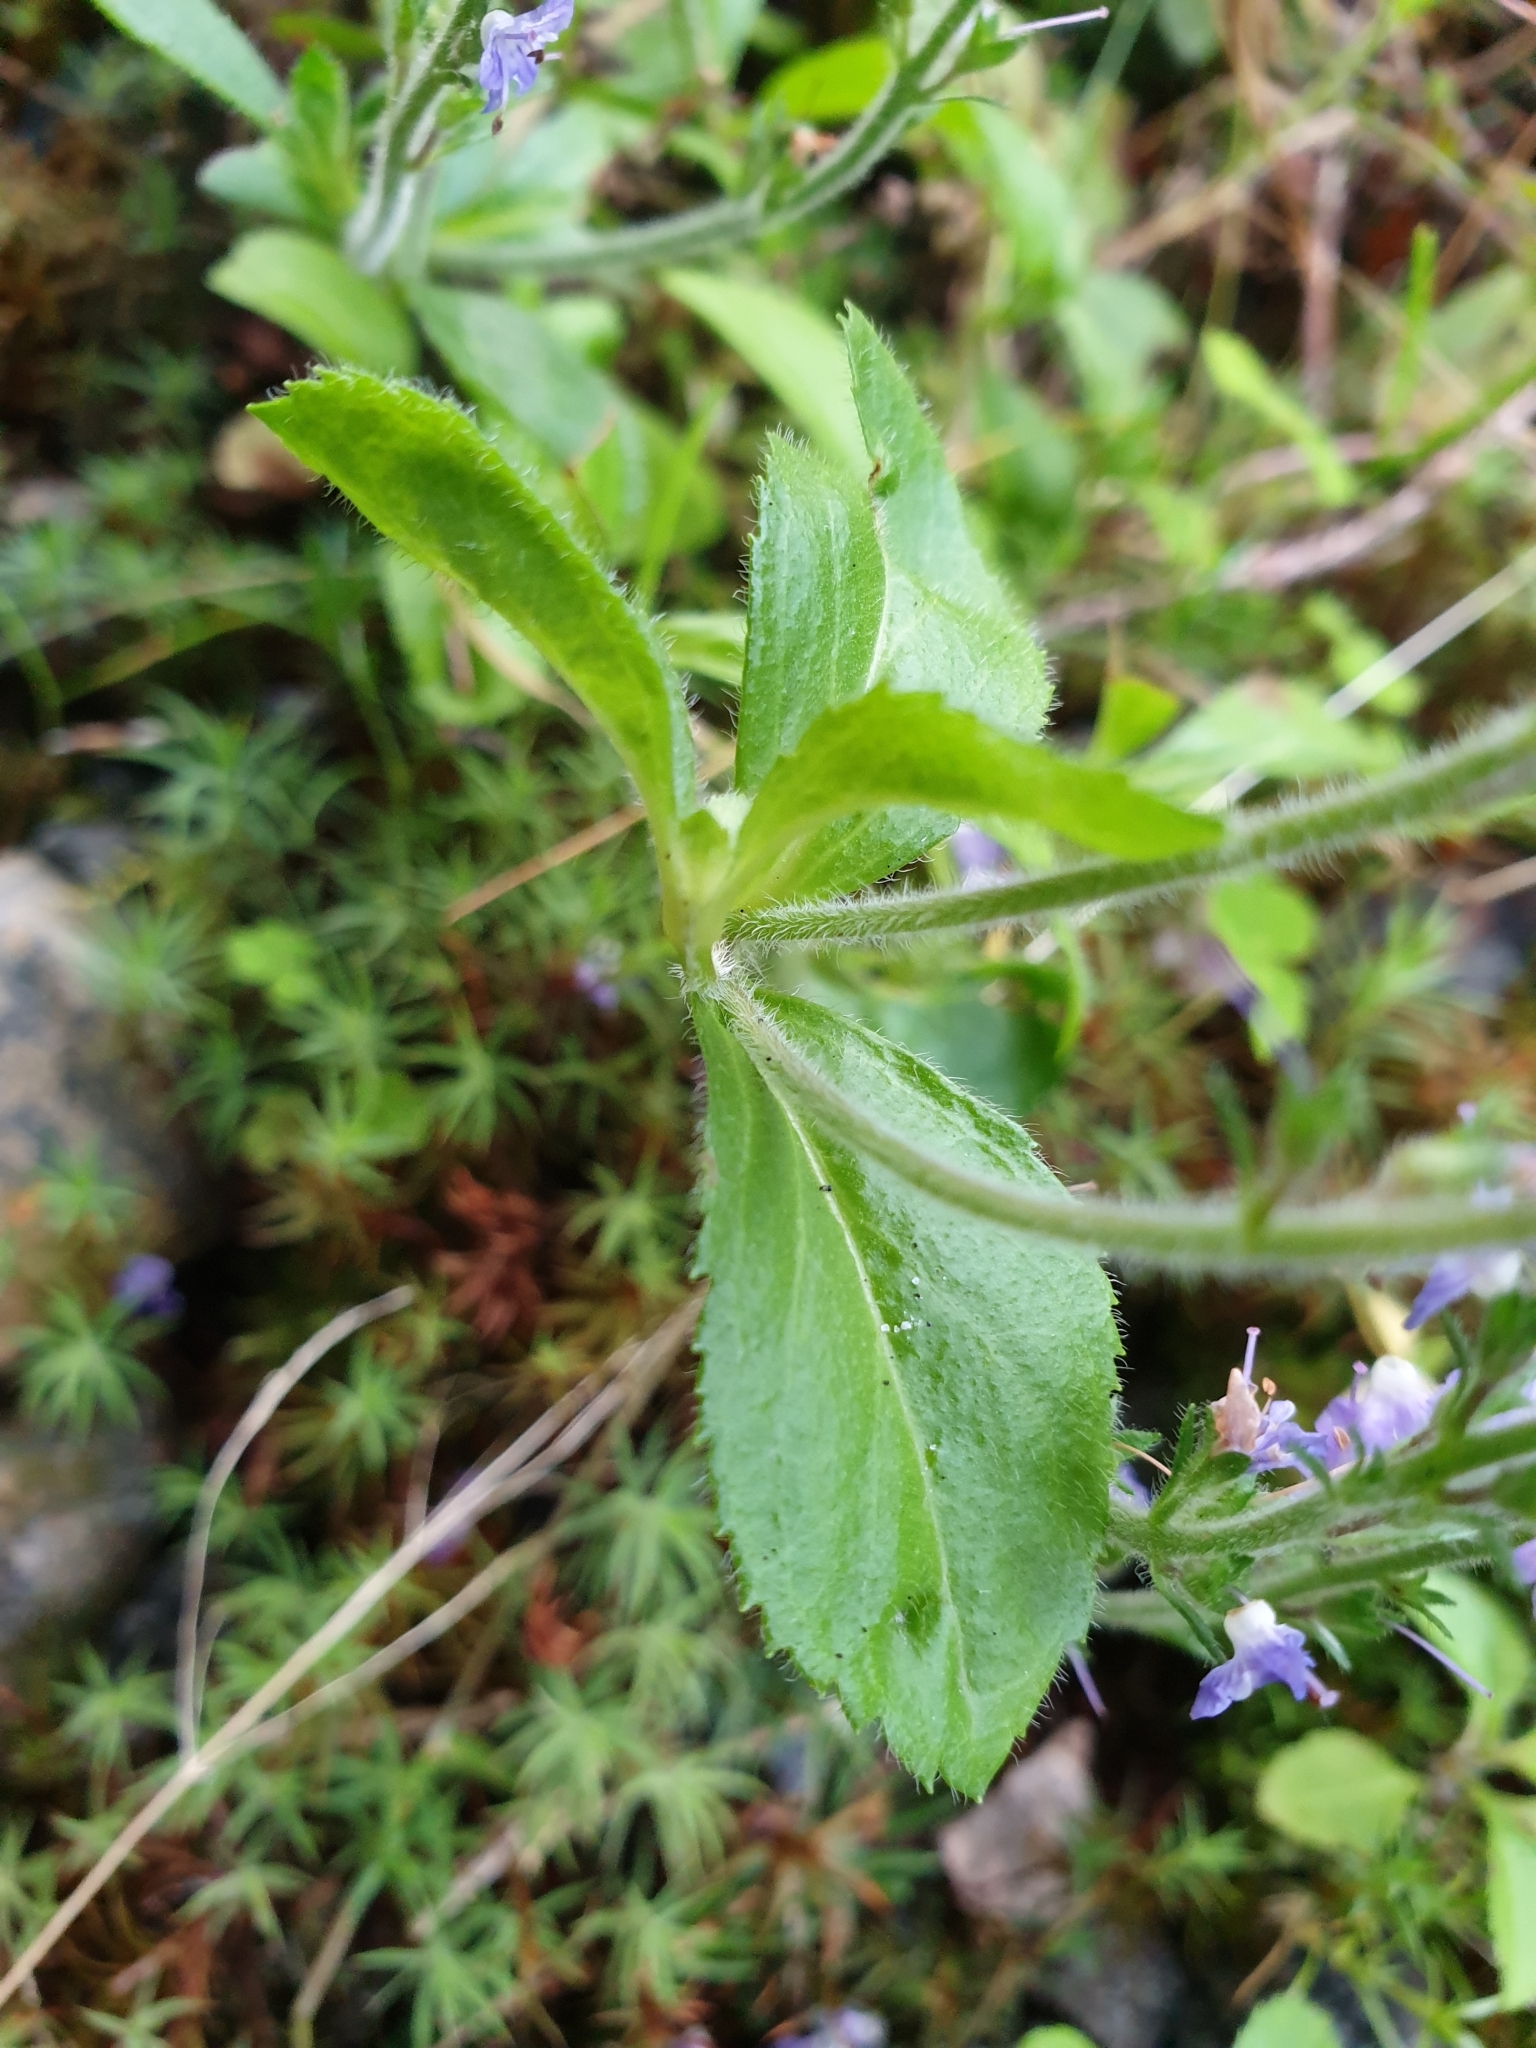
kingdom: Plantae
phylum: Tracheophyta
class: Magnoliopsida
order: Lamiales
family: Plantaginaceae
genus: Veronica
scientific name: Veronica officinalis
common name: Common speedwell
